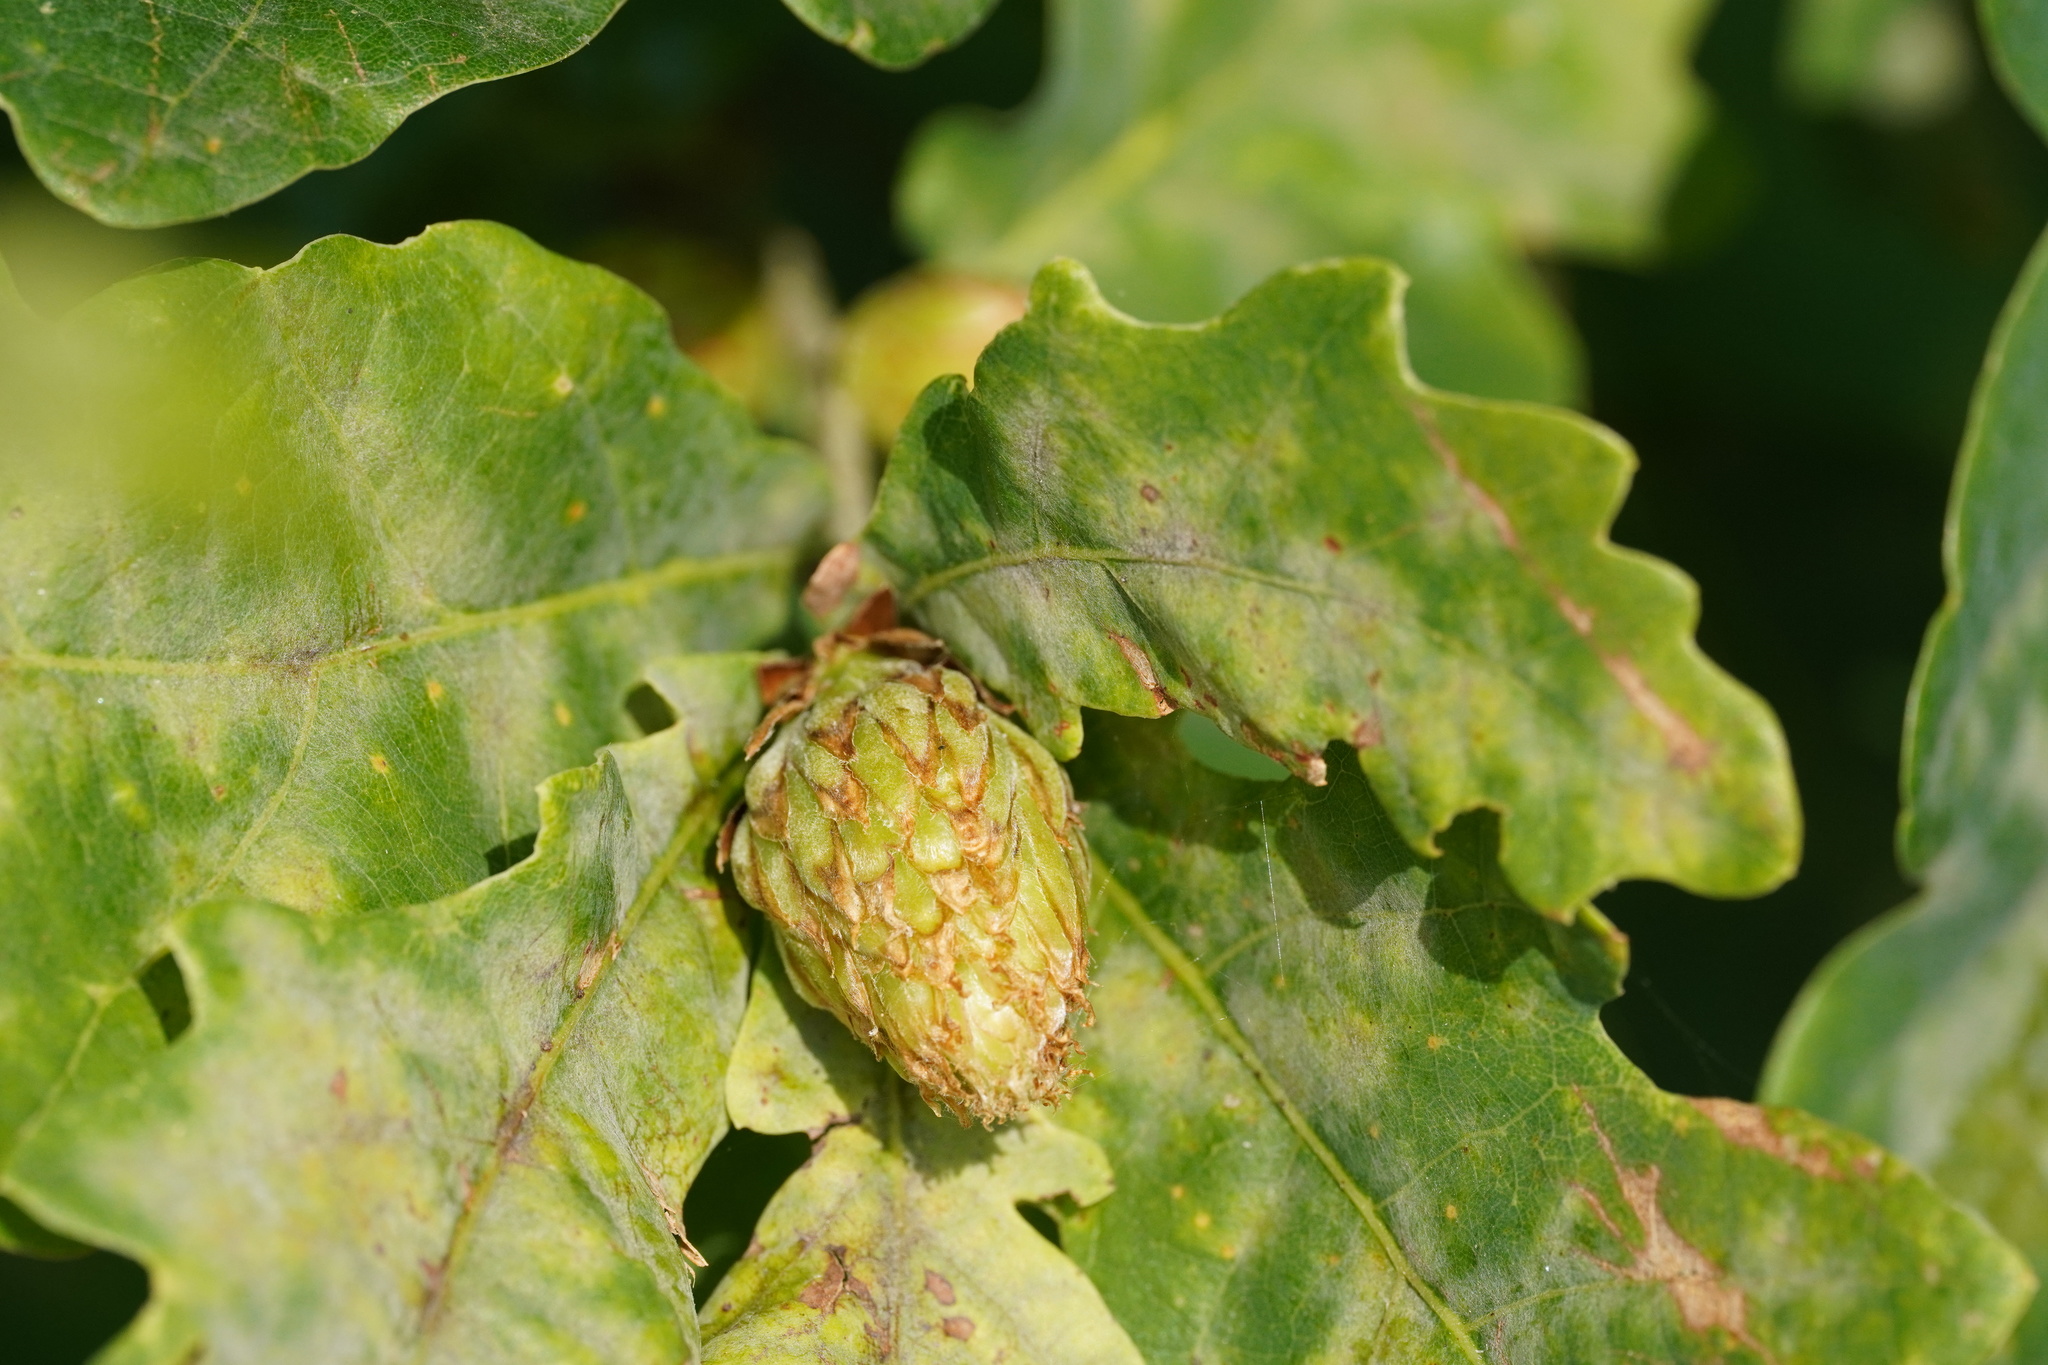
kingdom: Animalia
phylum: Arthropoda
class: Insecta
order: Hymenoptera
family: Cynipidae
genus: Andricus
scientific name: Andricus foecundatrix
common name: Artichoke gall
